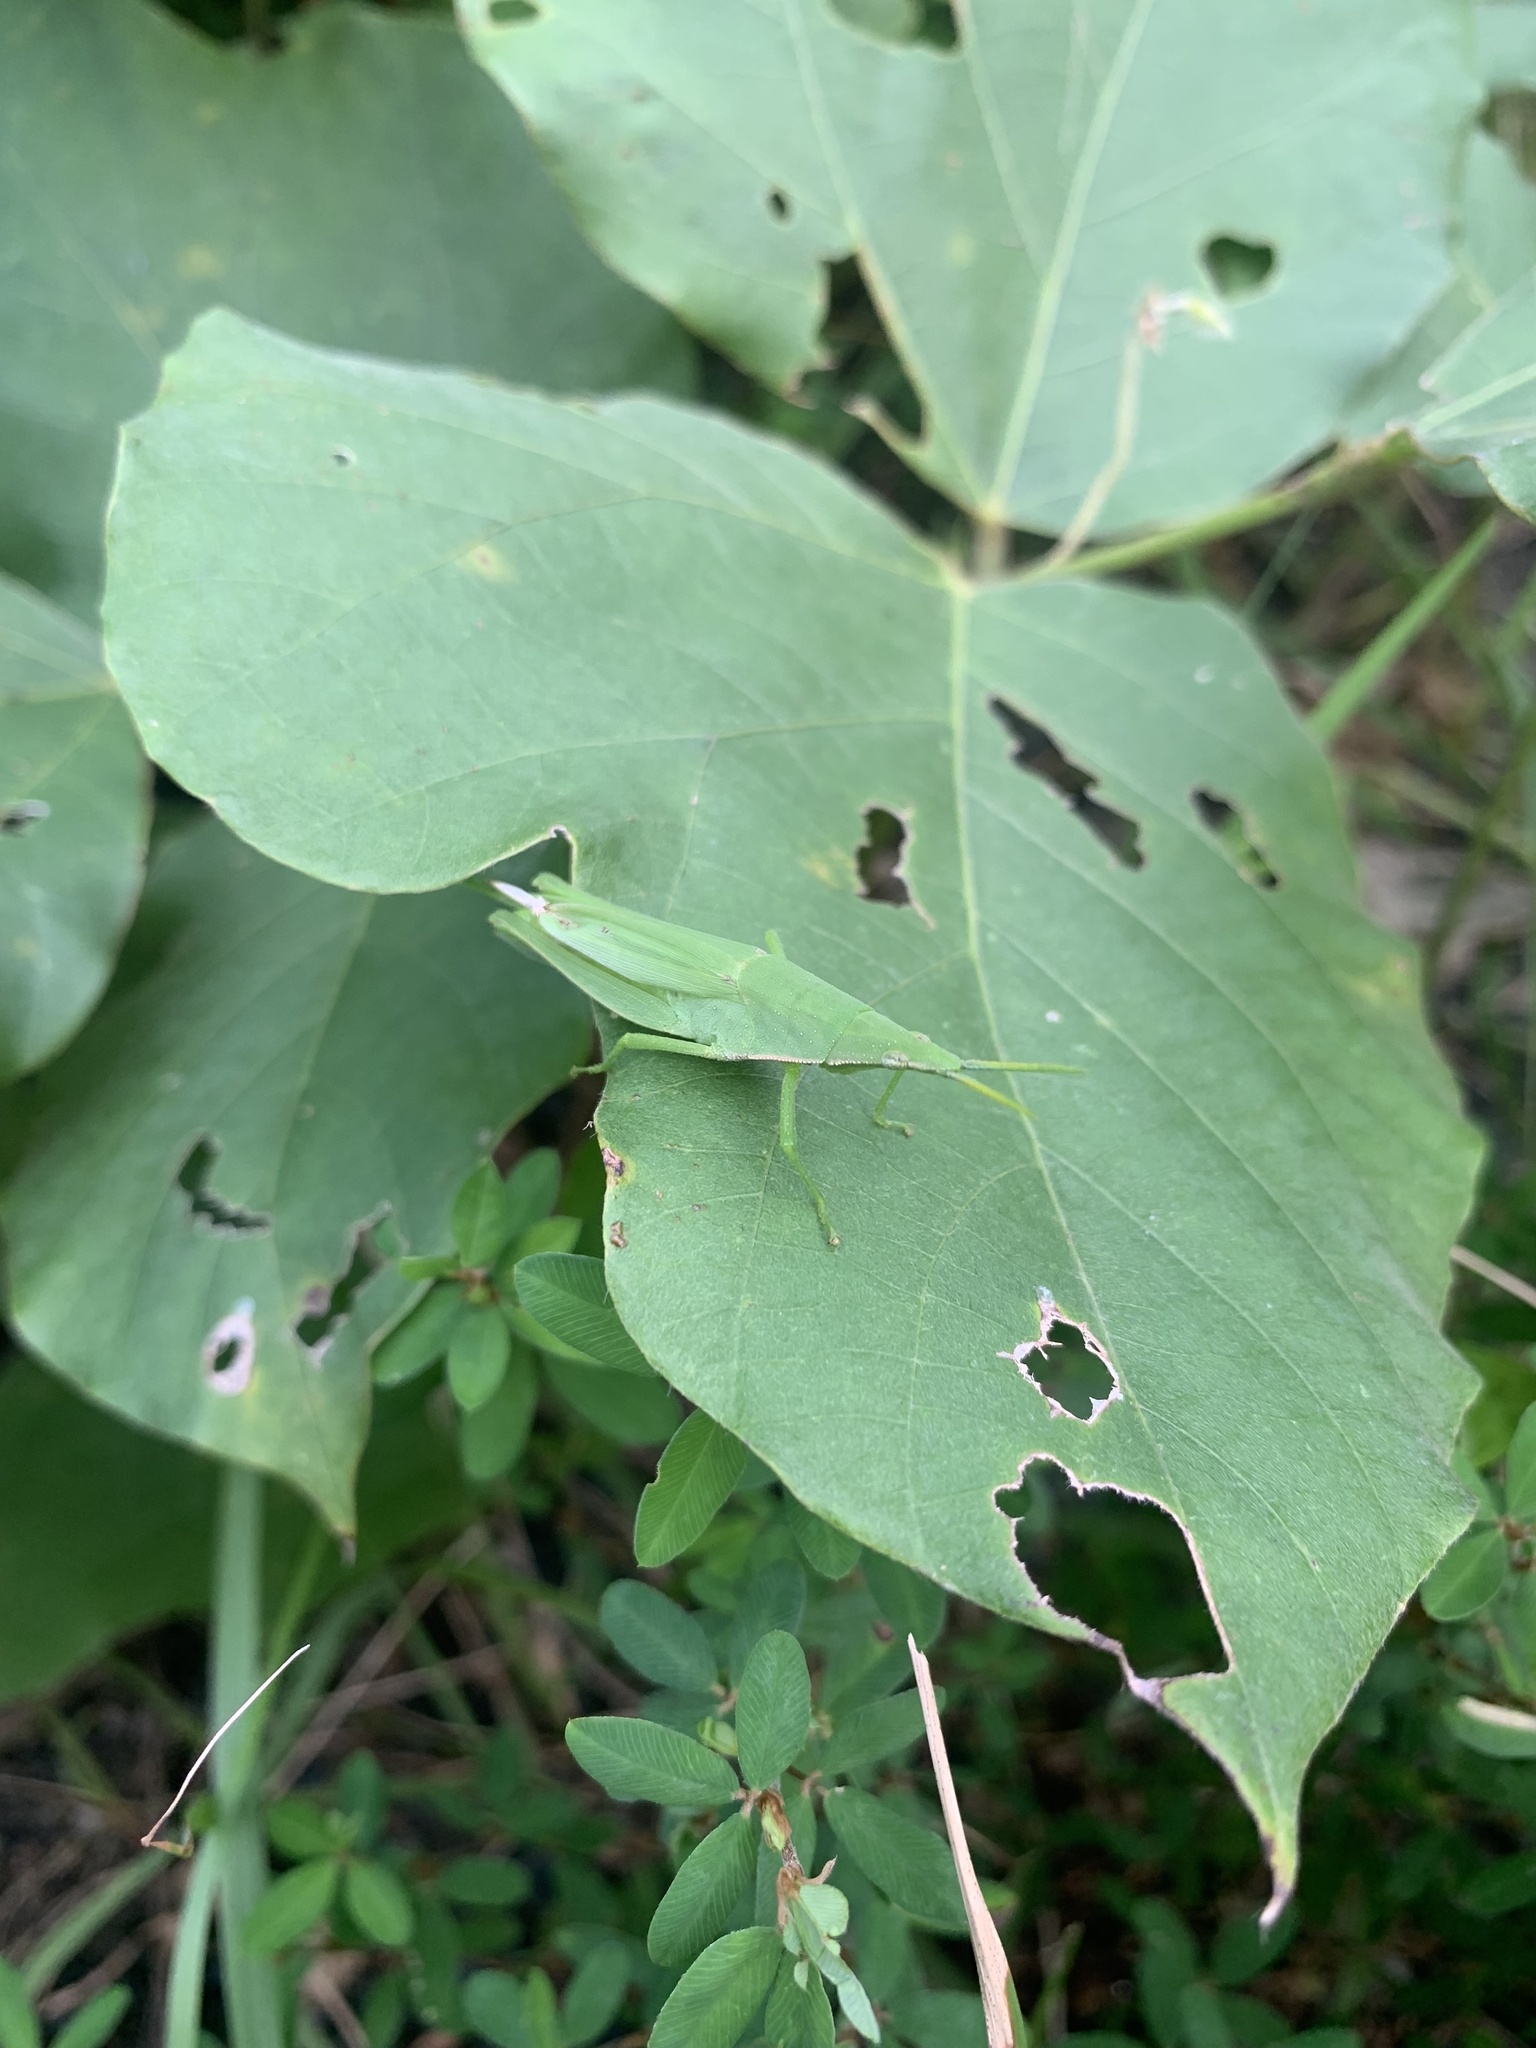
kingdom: Animalia
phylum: Arthropoda
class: Insecta
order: Orthoptera
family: Pyrgomorphidae
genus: Atractomorpha
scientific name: Atractomorpha lata
